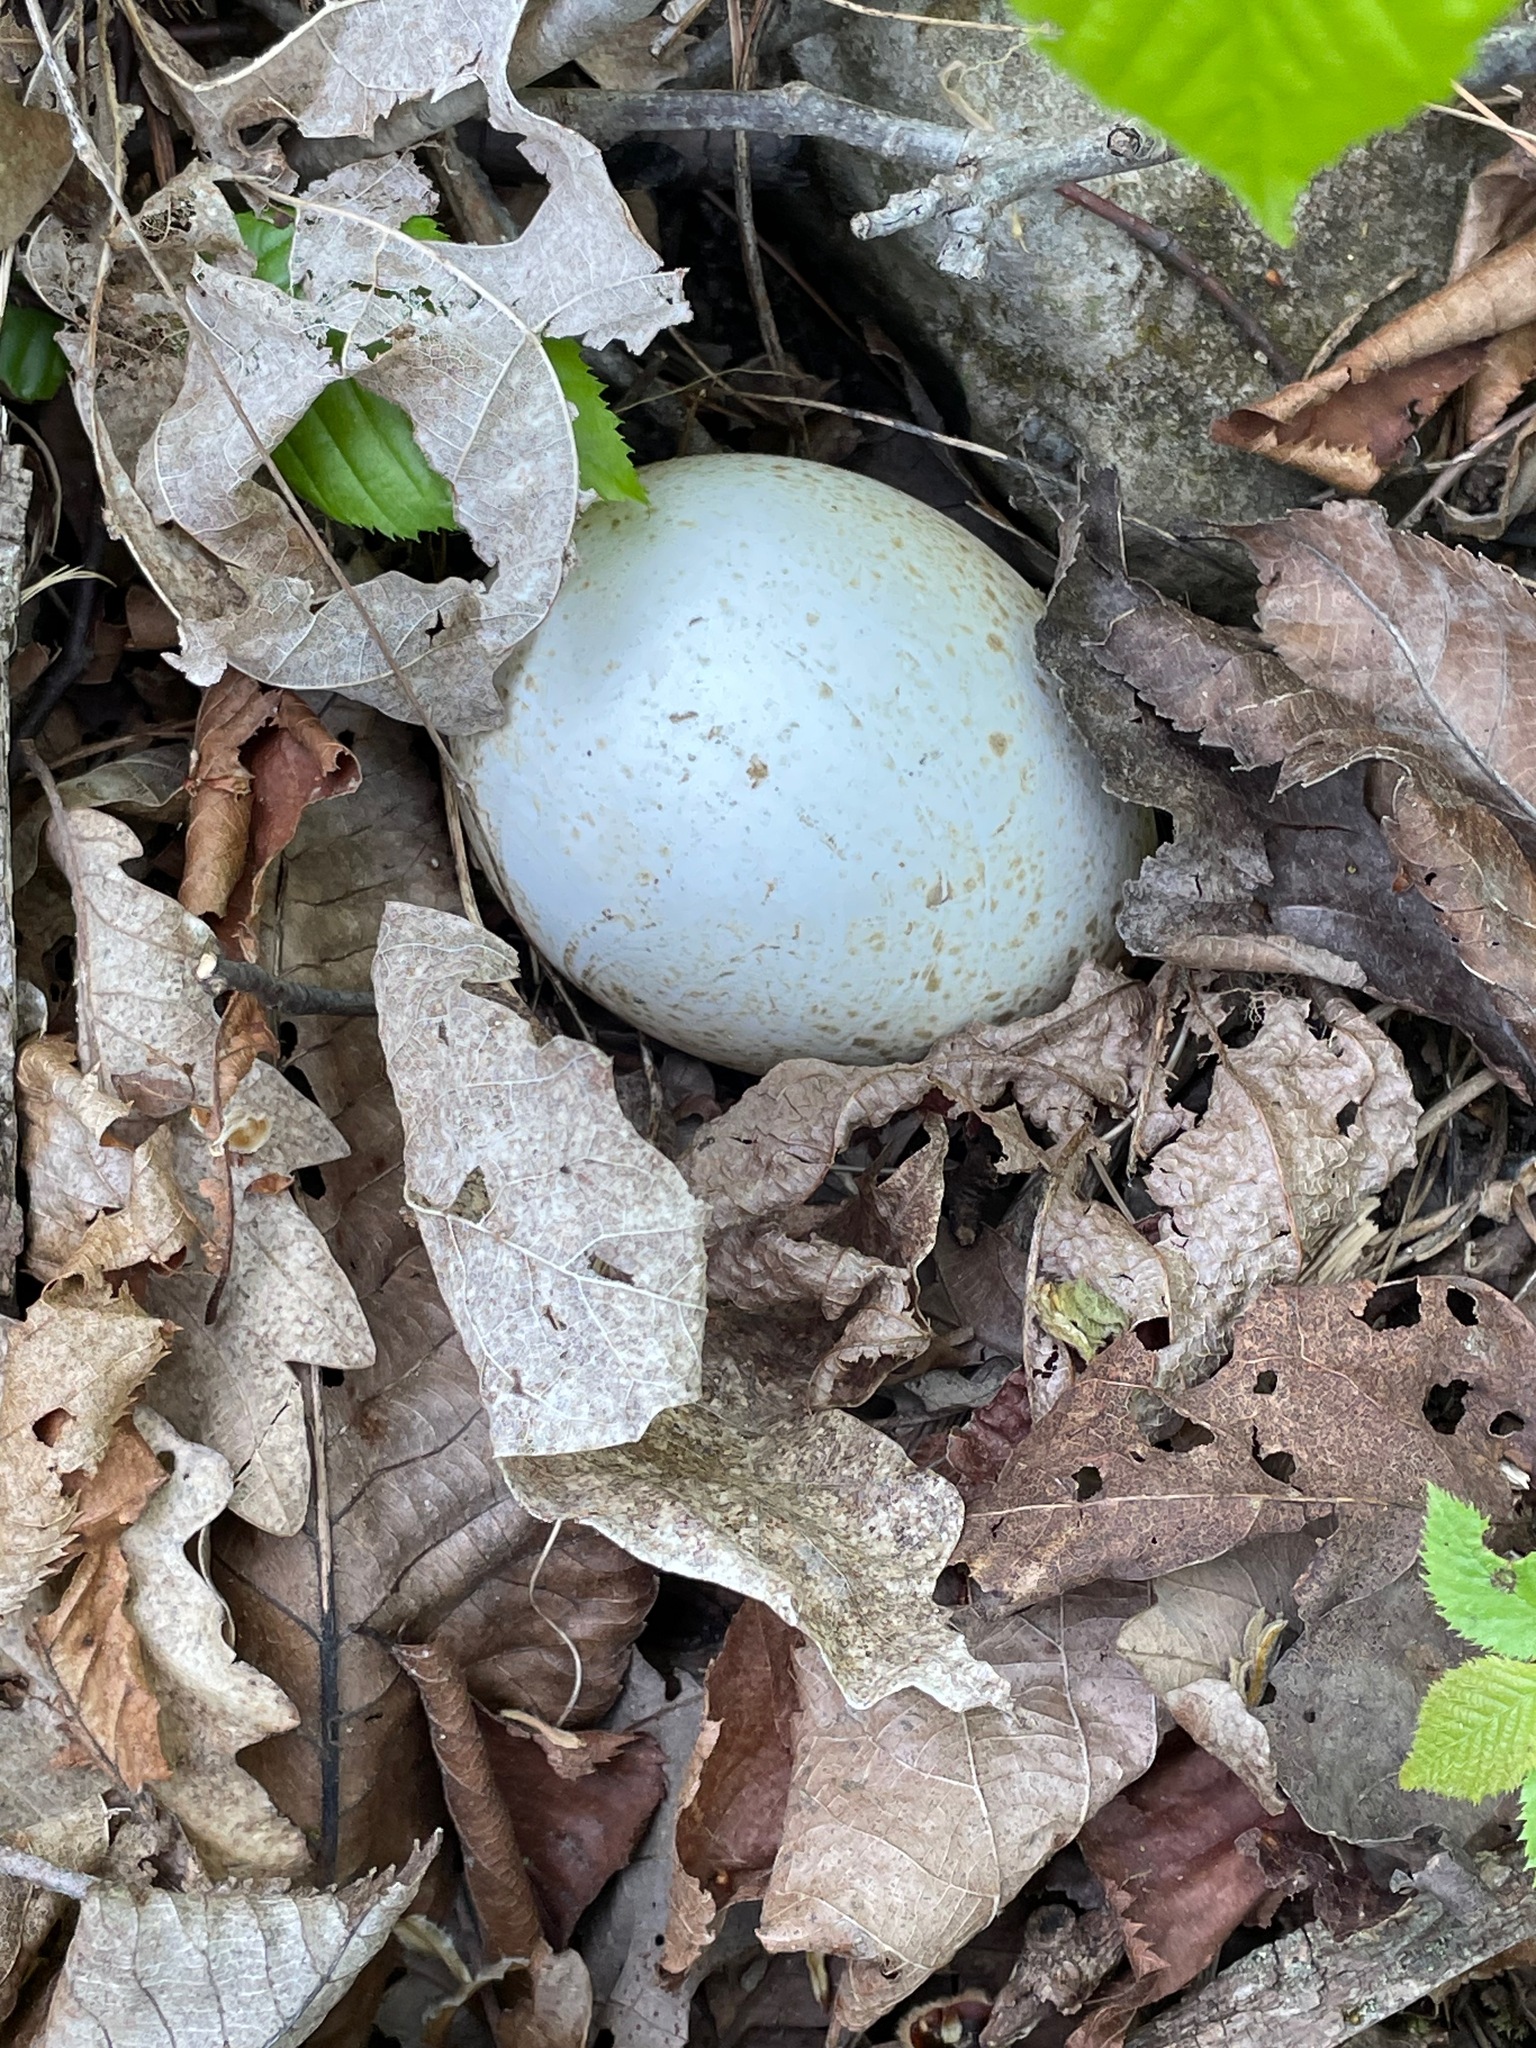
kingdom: Animalia
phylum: Chordata
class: Aves
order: Galliformes
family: Phasianidae
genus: Meleagris
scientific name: Meleagris gallopavo
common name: Wild turkey
